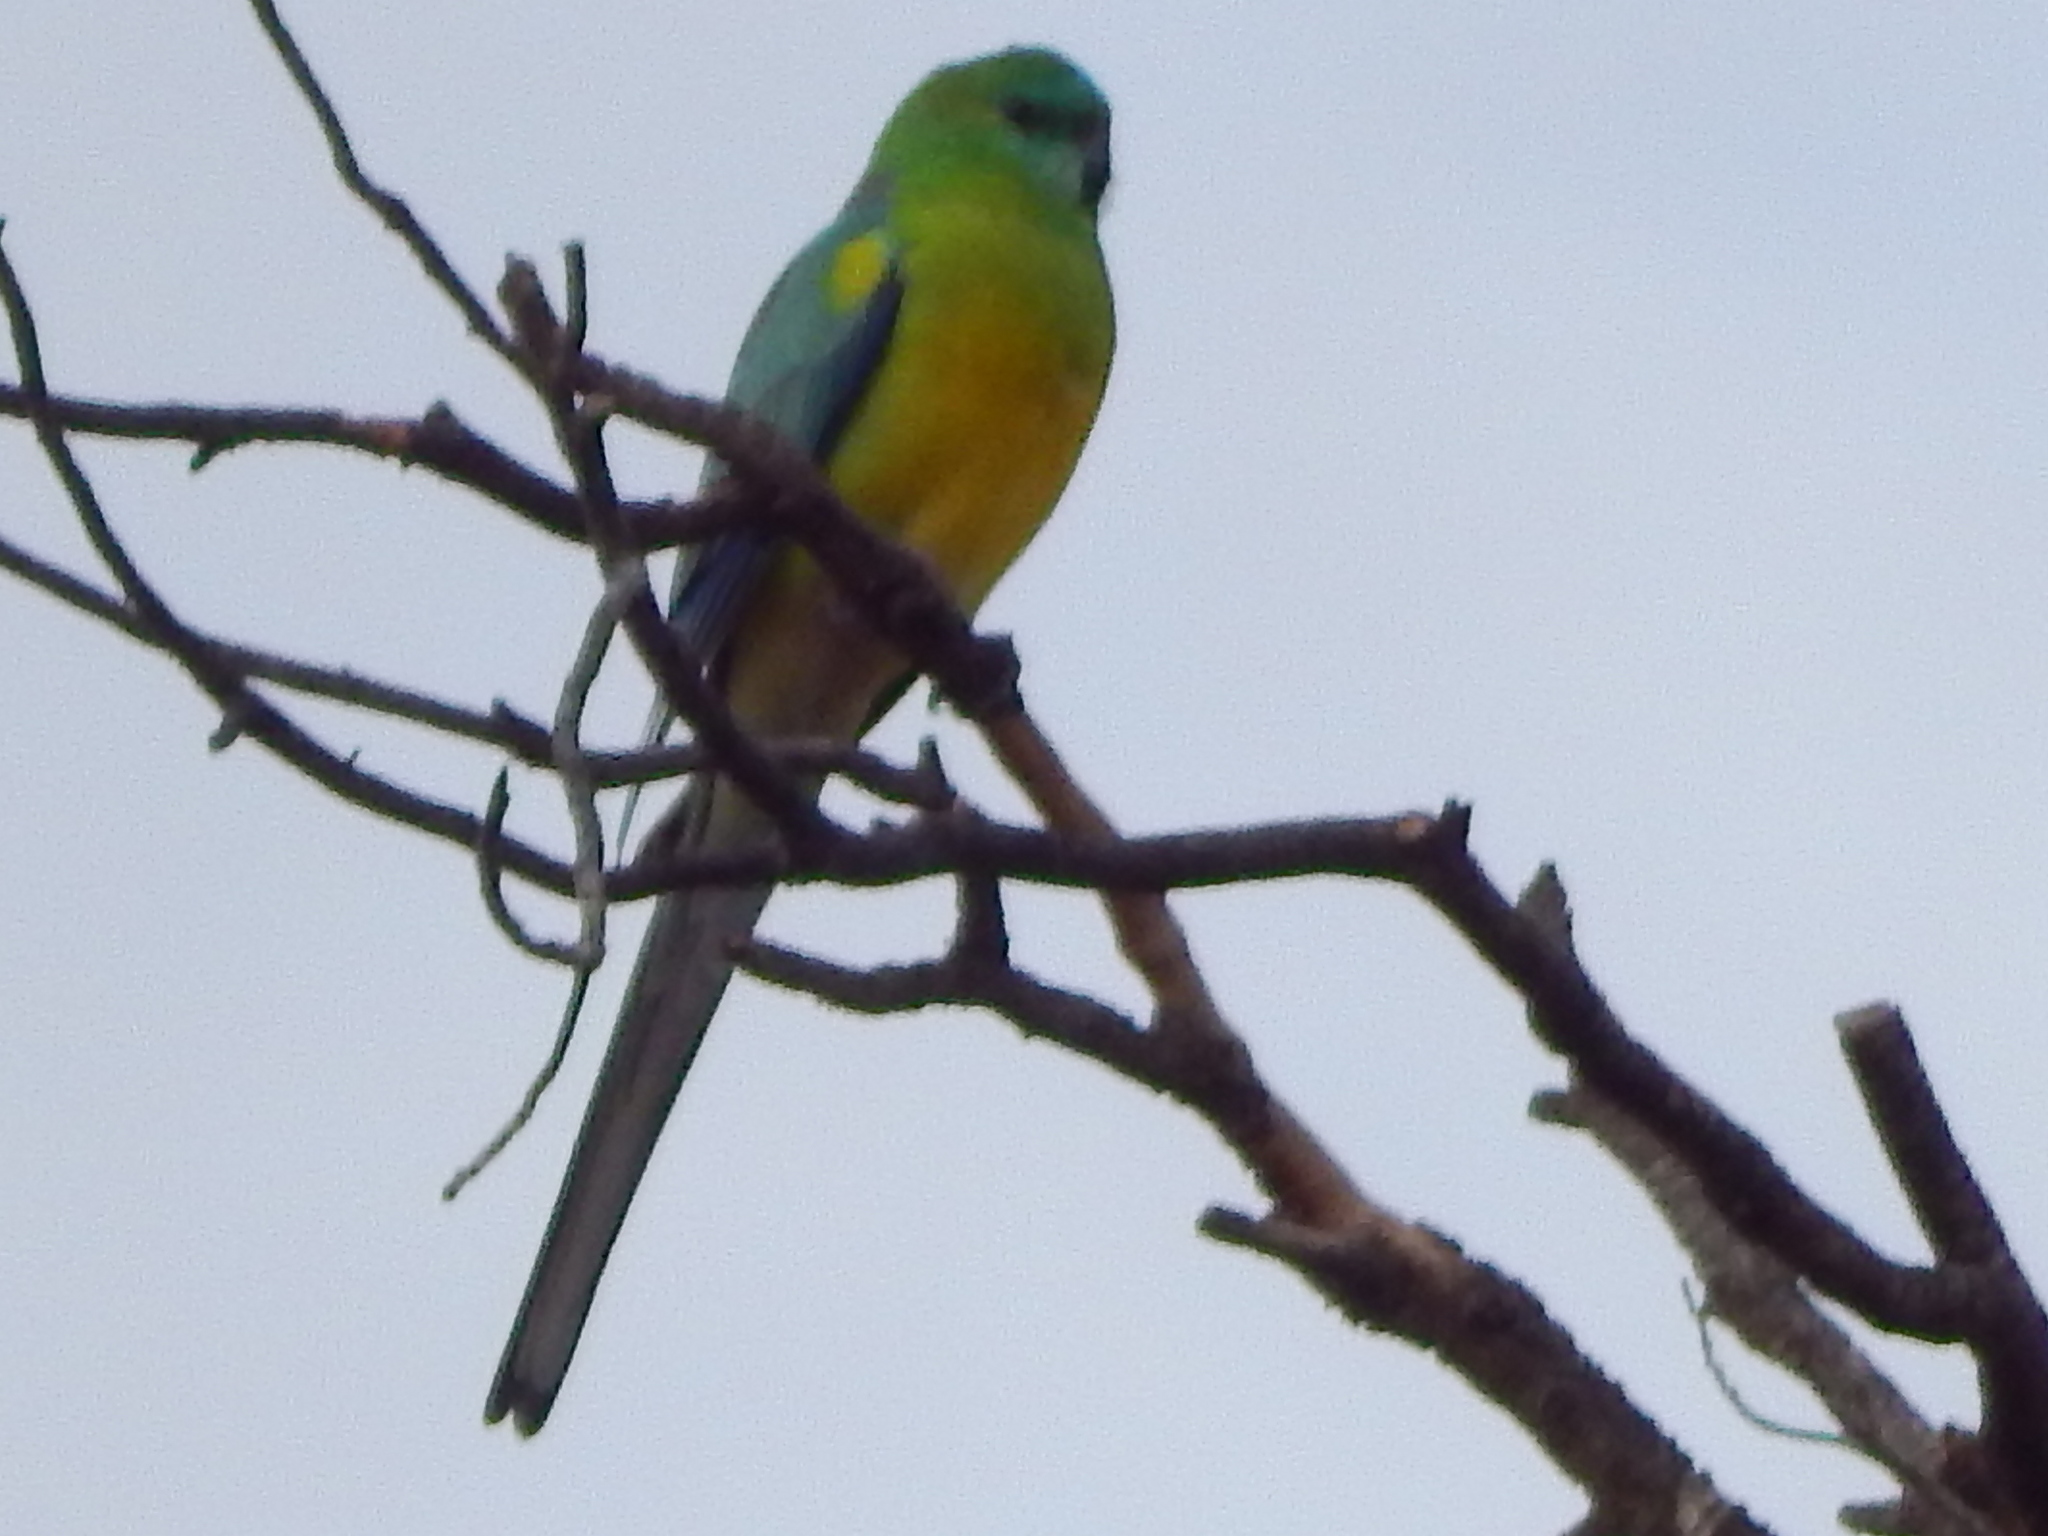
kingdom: Animalia
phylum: Chordata
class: Aves
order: Psittaciformes
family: Psittacidae
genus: Psephotus
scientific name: Psephotus haematonotus
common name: Red-rumped parrot
